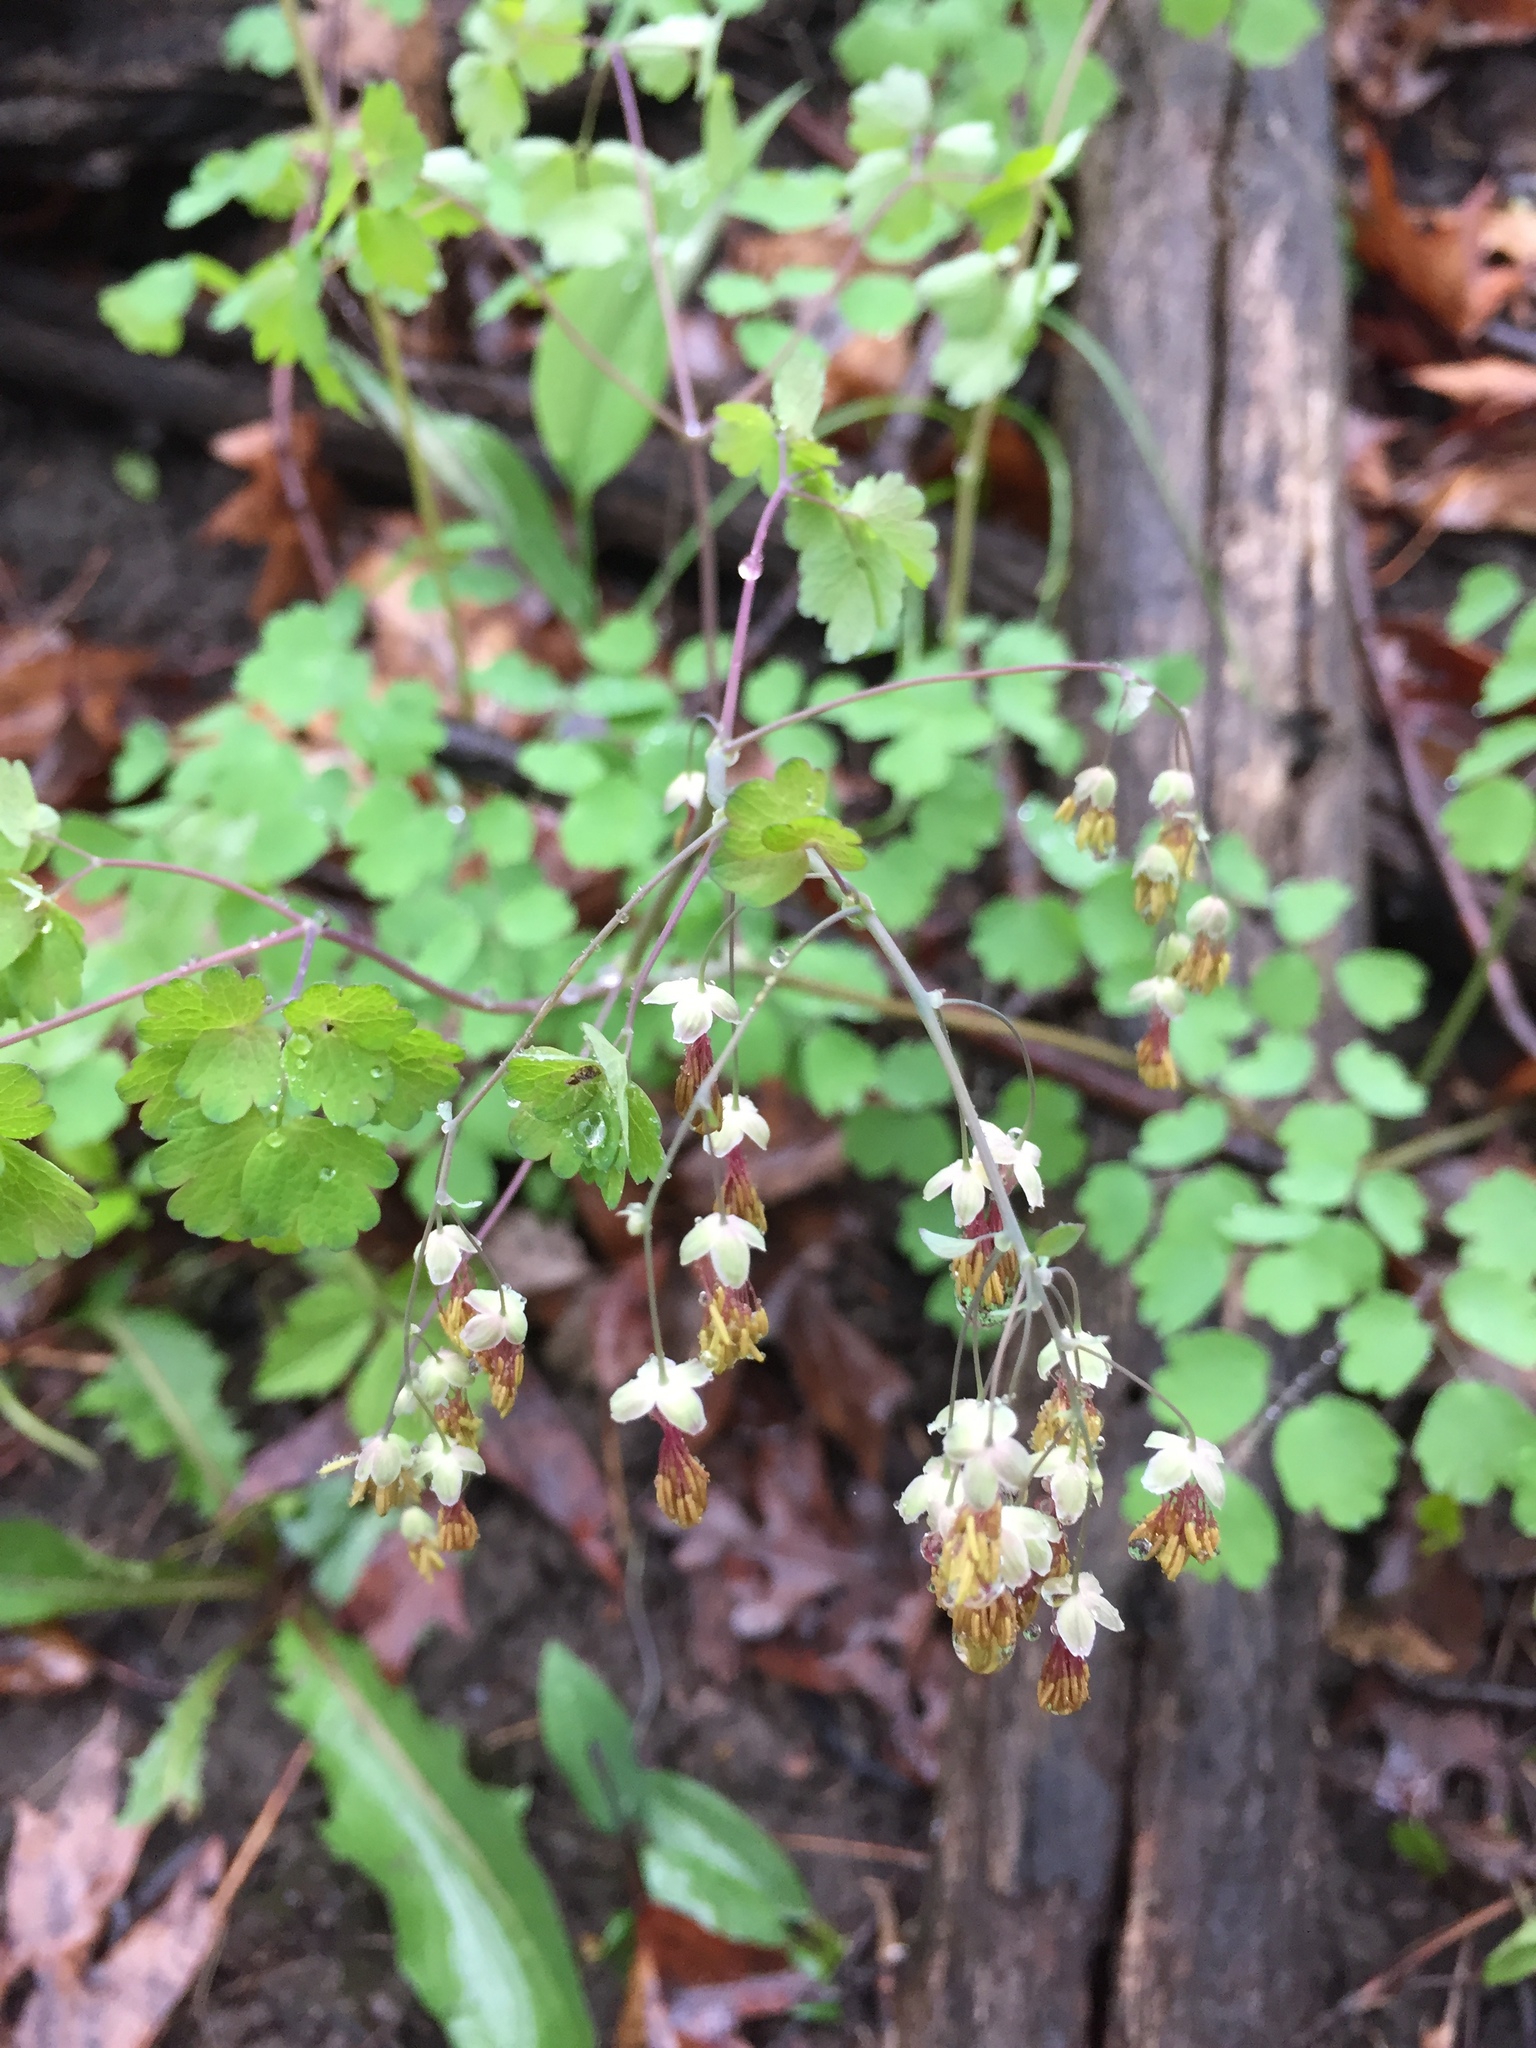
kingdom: Plantae
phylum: Tracheophyta
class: Magnoliopsida
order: Ranunculales
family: Ranunculaceae
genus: Thalictrum
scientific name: Thalictrum dioicum
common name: Early meadow-rue
